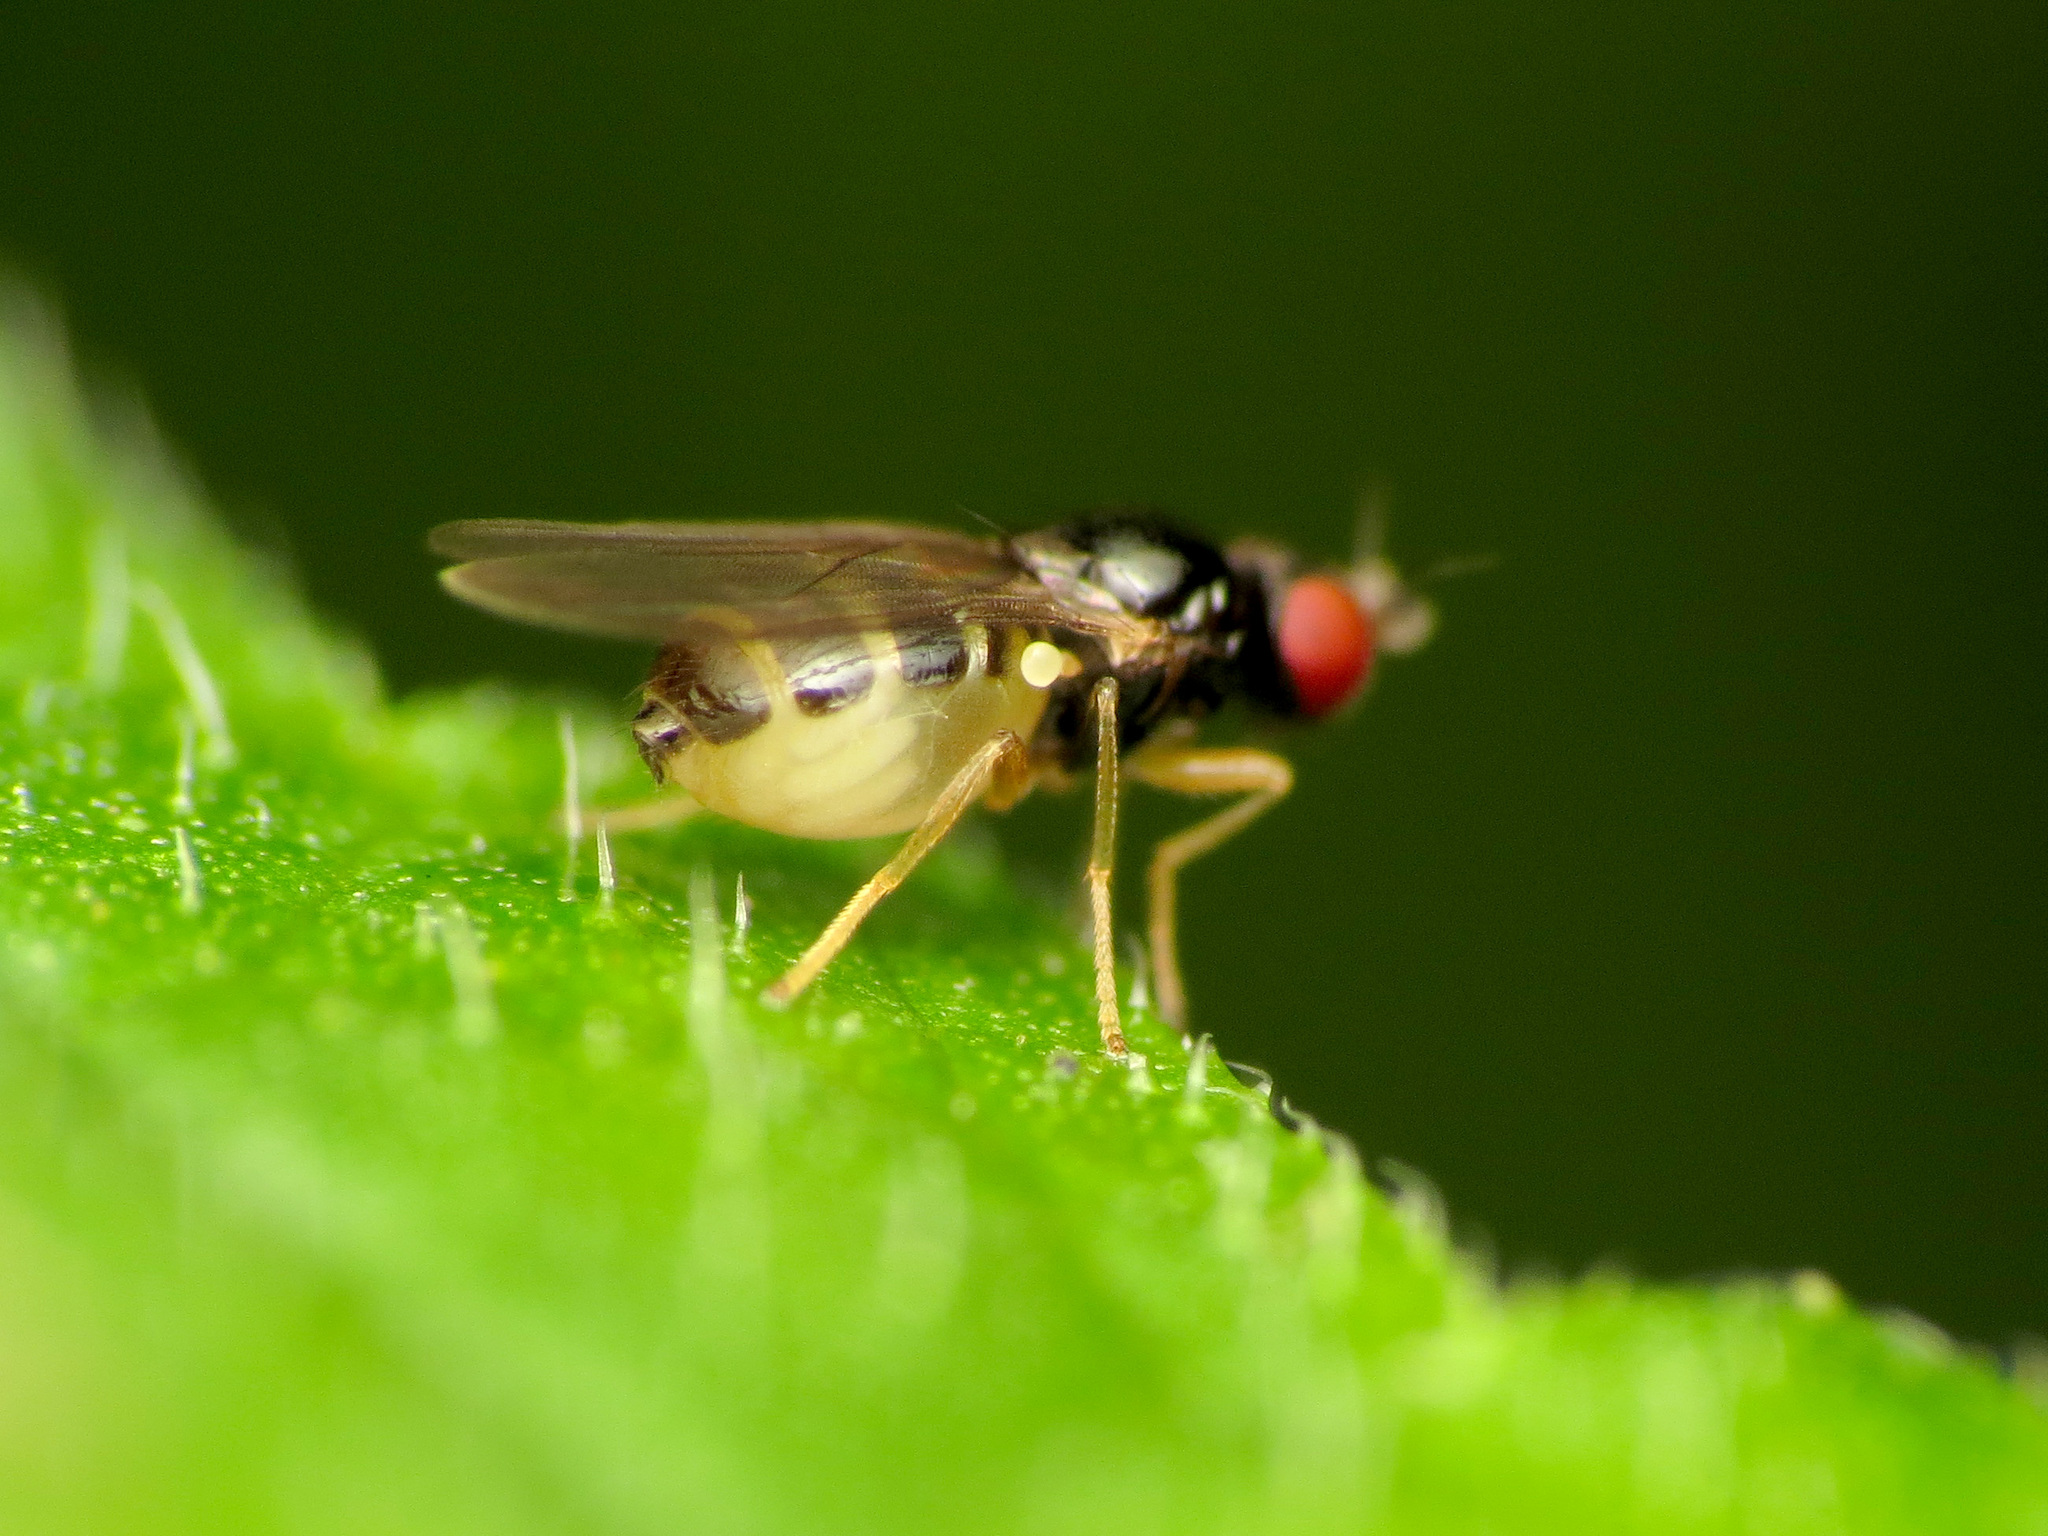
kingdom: Animalia
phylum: Arthropoda
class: Insecta
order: Diptera
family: Chloropidae
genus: Rhopalopterum
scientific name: Rhopalopterum nudiusculum
